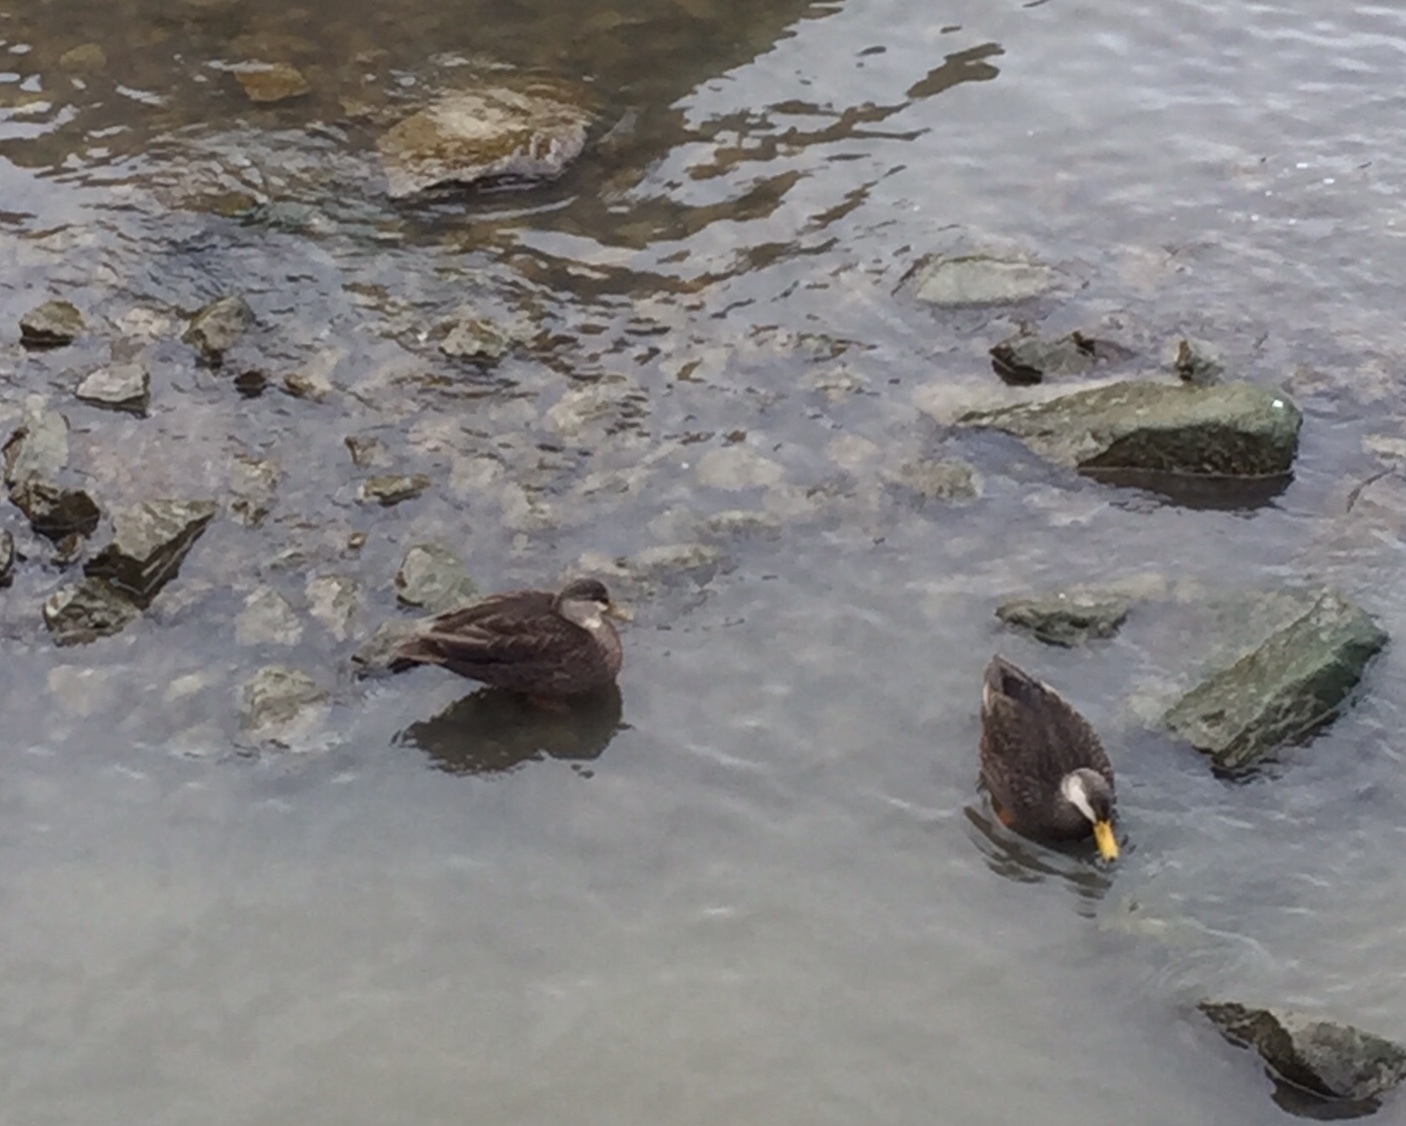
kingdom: Animalia
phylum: Chordata
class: Aves
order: Anseriformes
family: Anatidae
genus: Anas
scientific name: Anas rubripes
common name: American black duck
